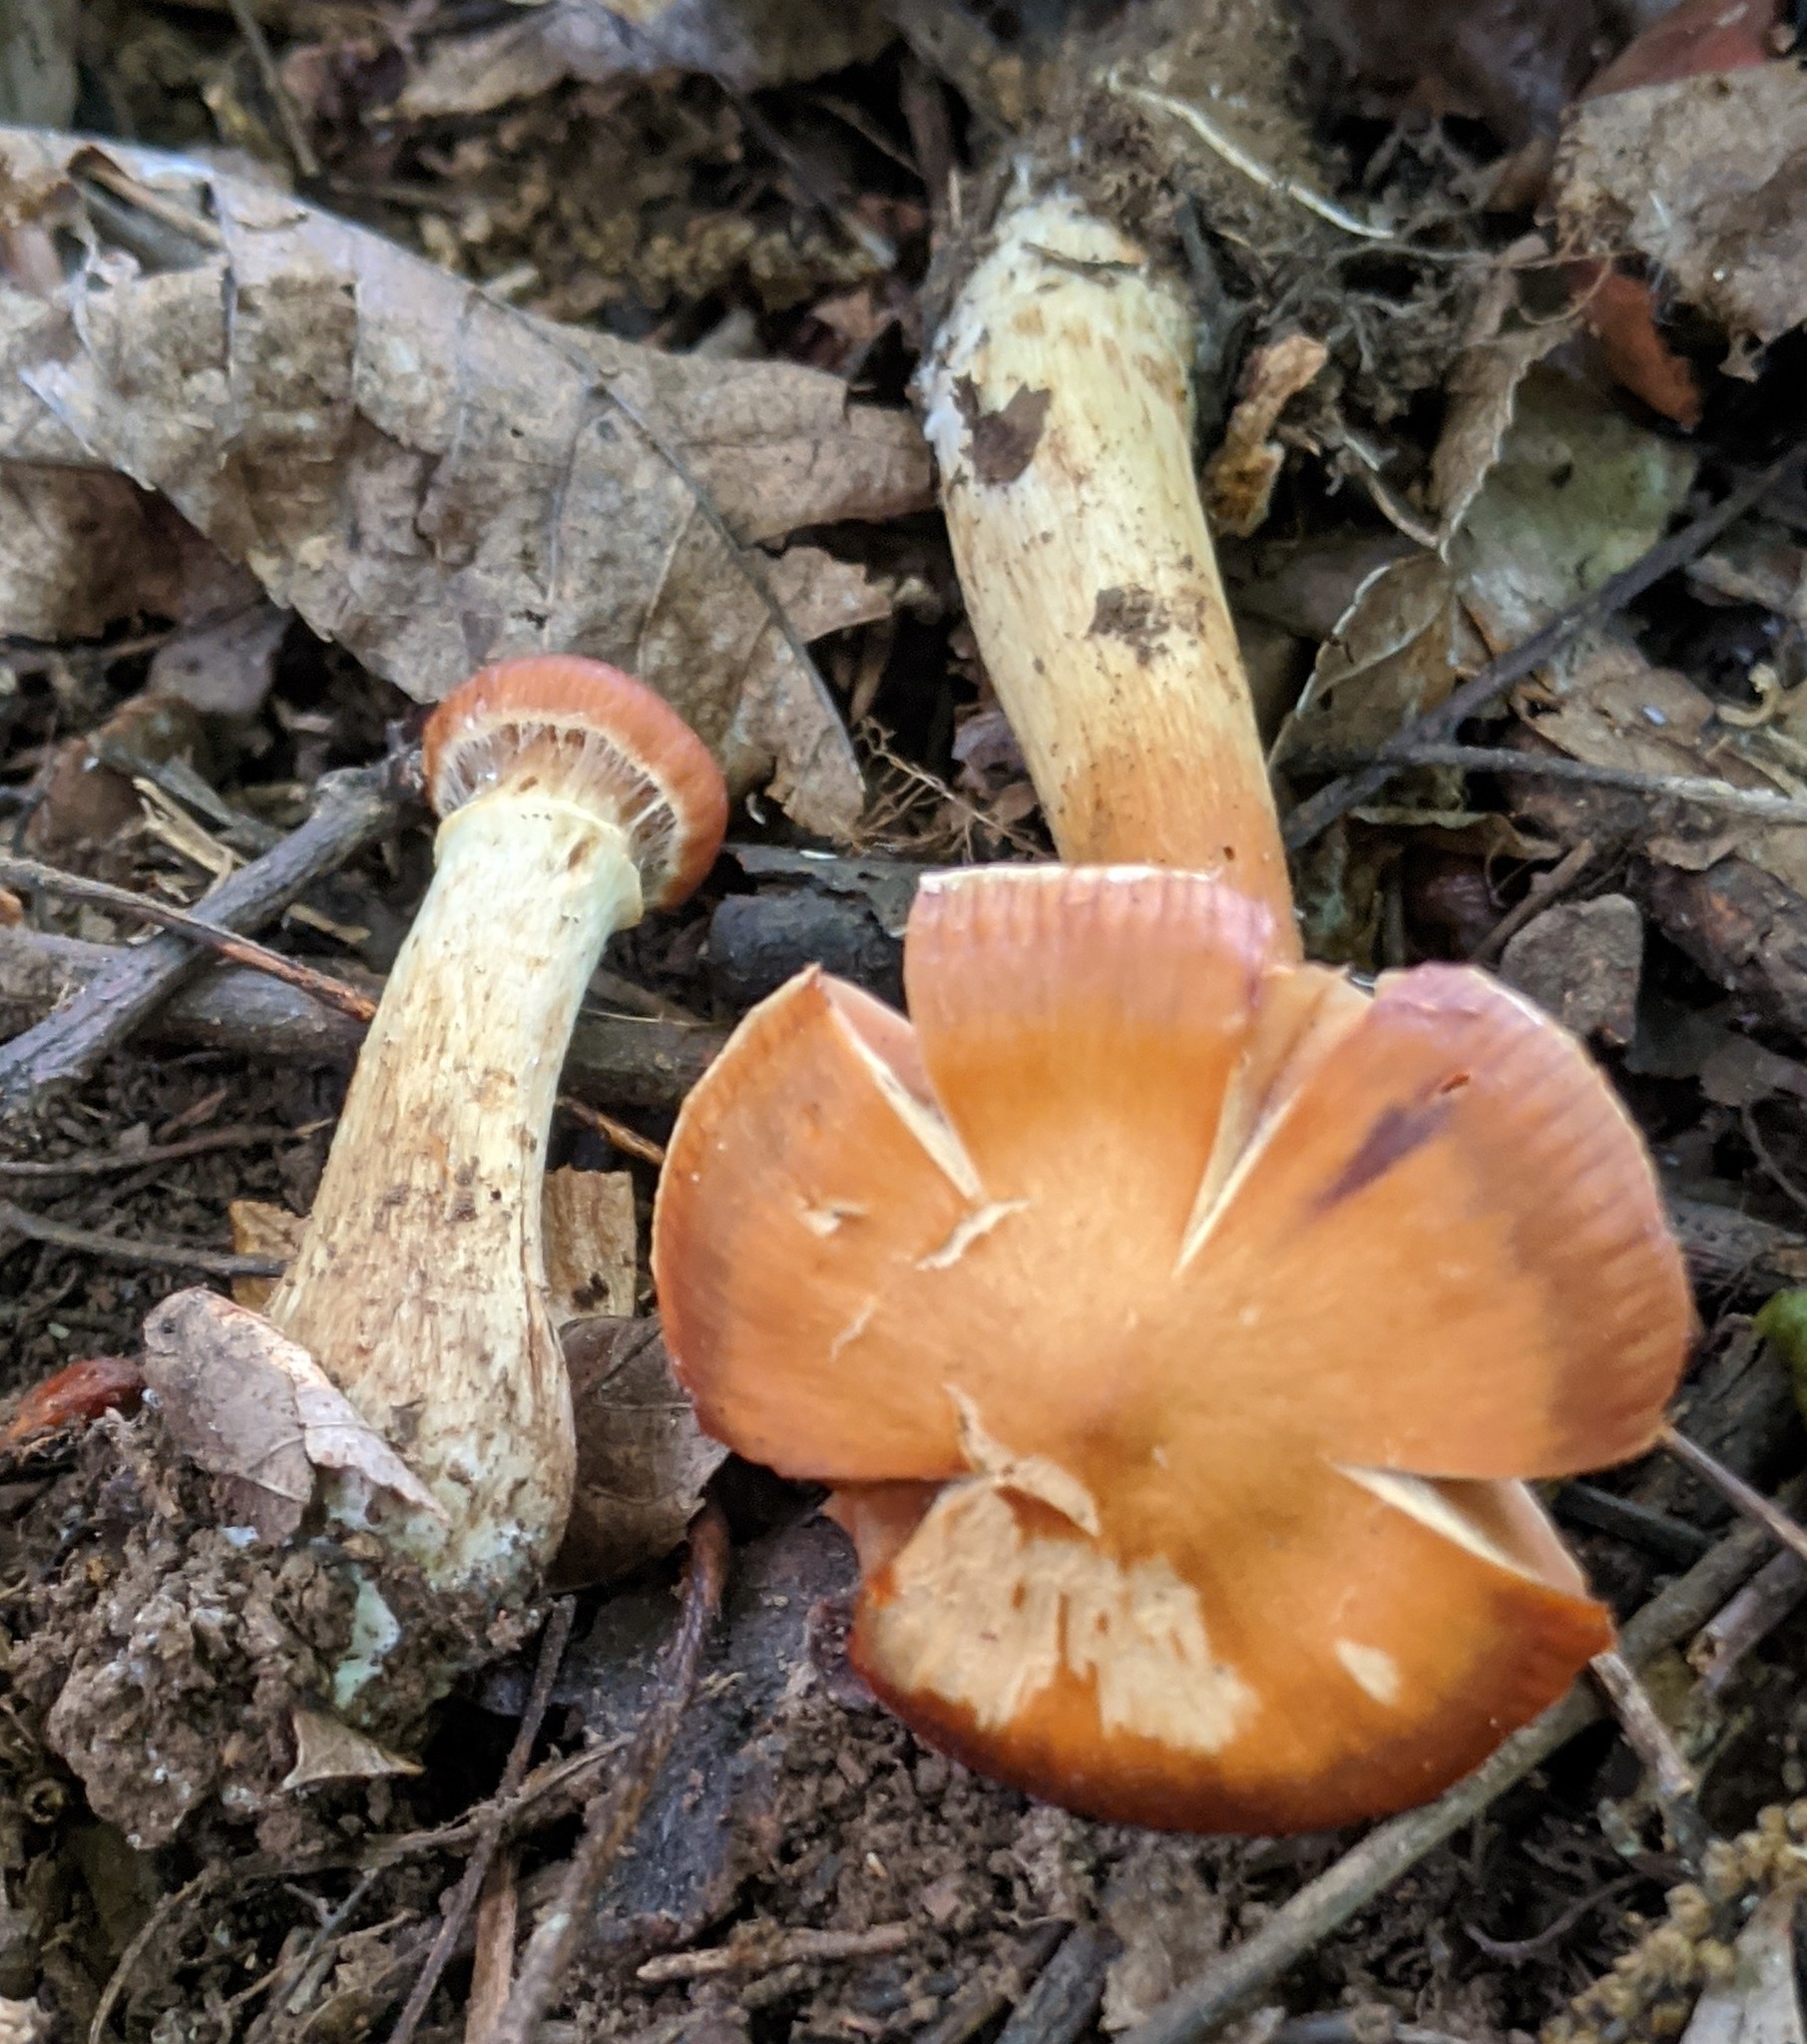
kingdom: Fungi
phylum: Basidiomycota
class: Agaricomycetes
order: Agaricales
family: Cortinariaceae
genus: Cortinarius
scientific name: Cortinarius
